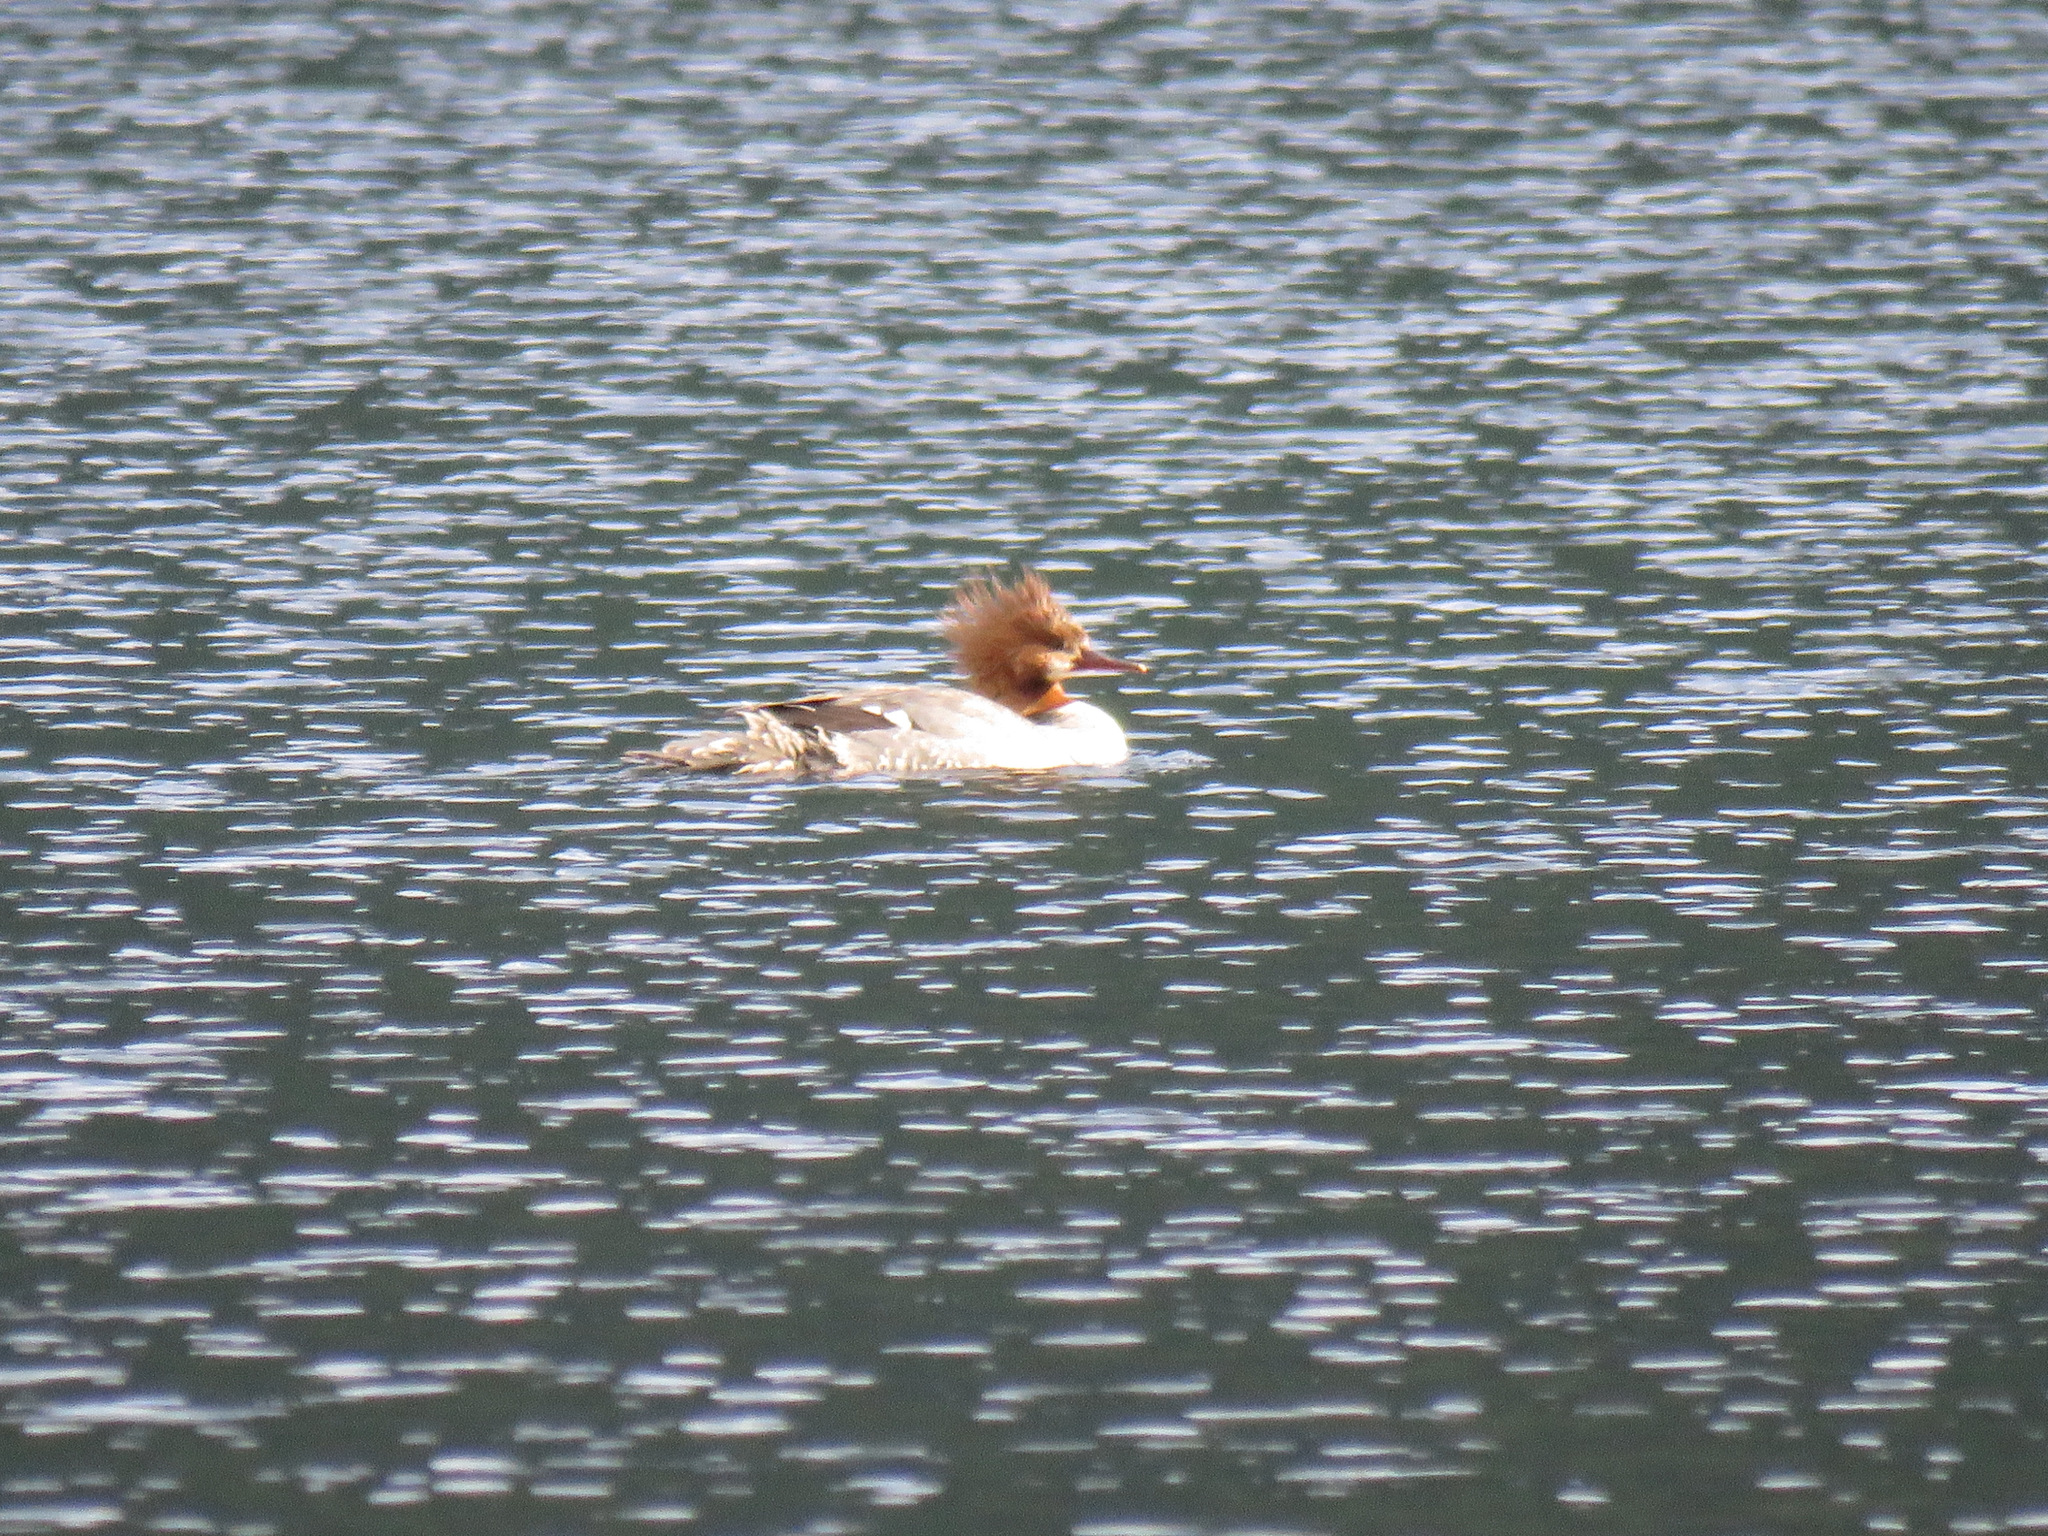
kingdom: Animalia
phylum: Chordata
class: Aves
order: Anseriformes
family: Anatidae
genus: Mergus
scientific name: Mergus merganser
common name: Common merganser
